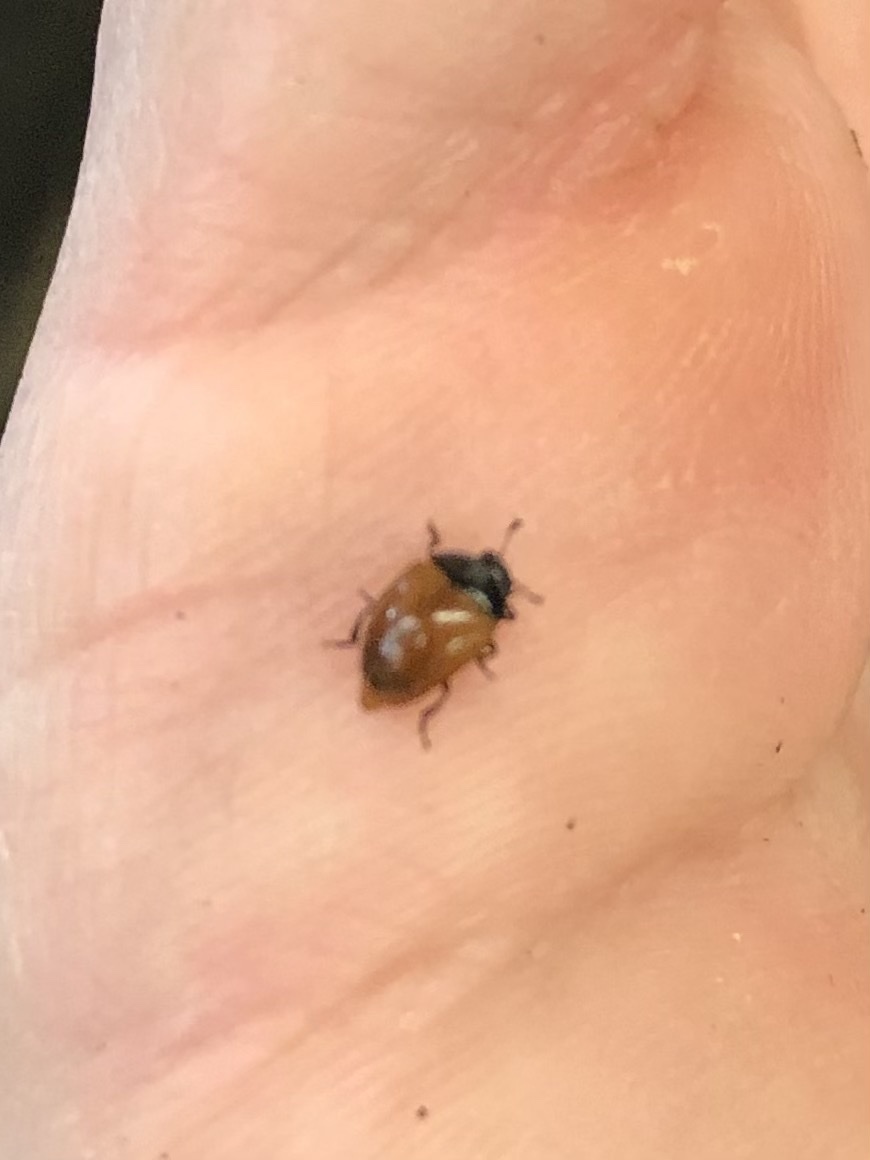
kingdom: Animalia
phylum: Arthropoda
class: Insecta
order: Coleoptera
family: Erotylidae
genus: Tritoma
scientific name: Tritoma sanguinipennis
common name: Red-winged tritoma
